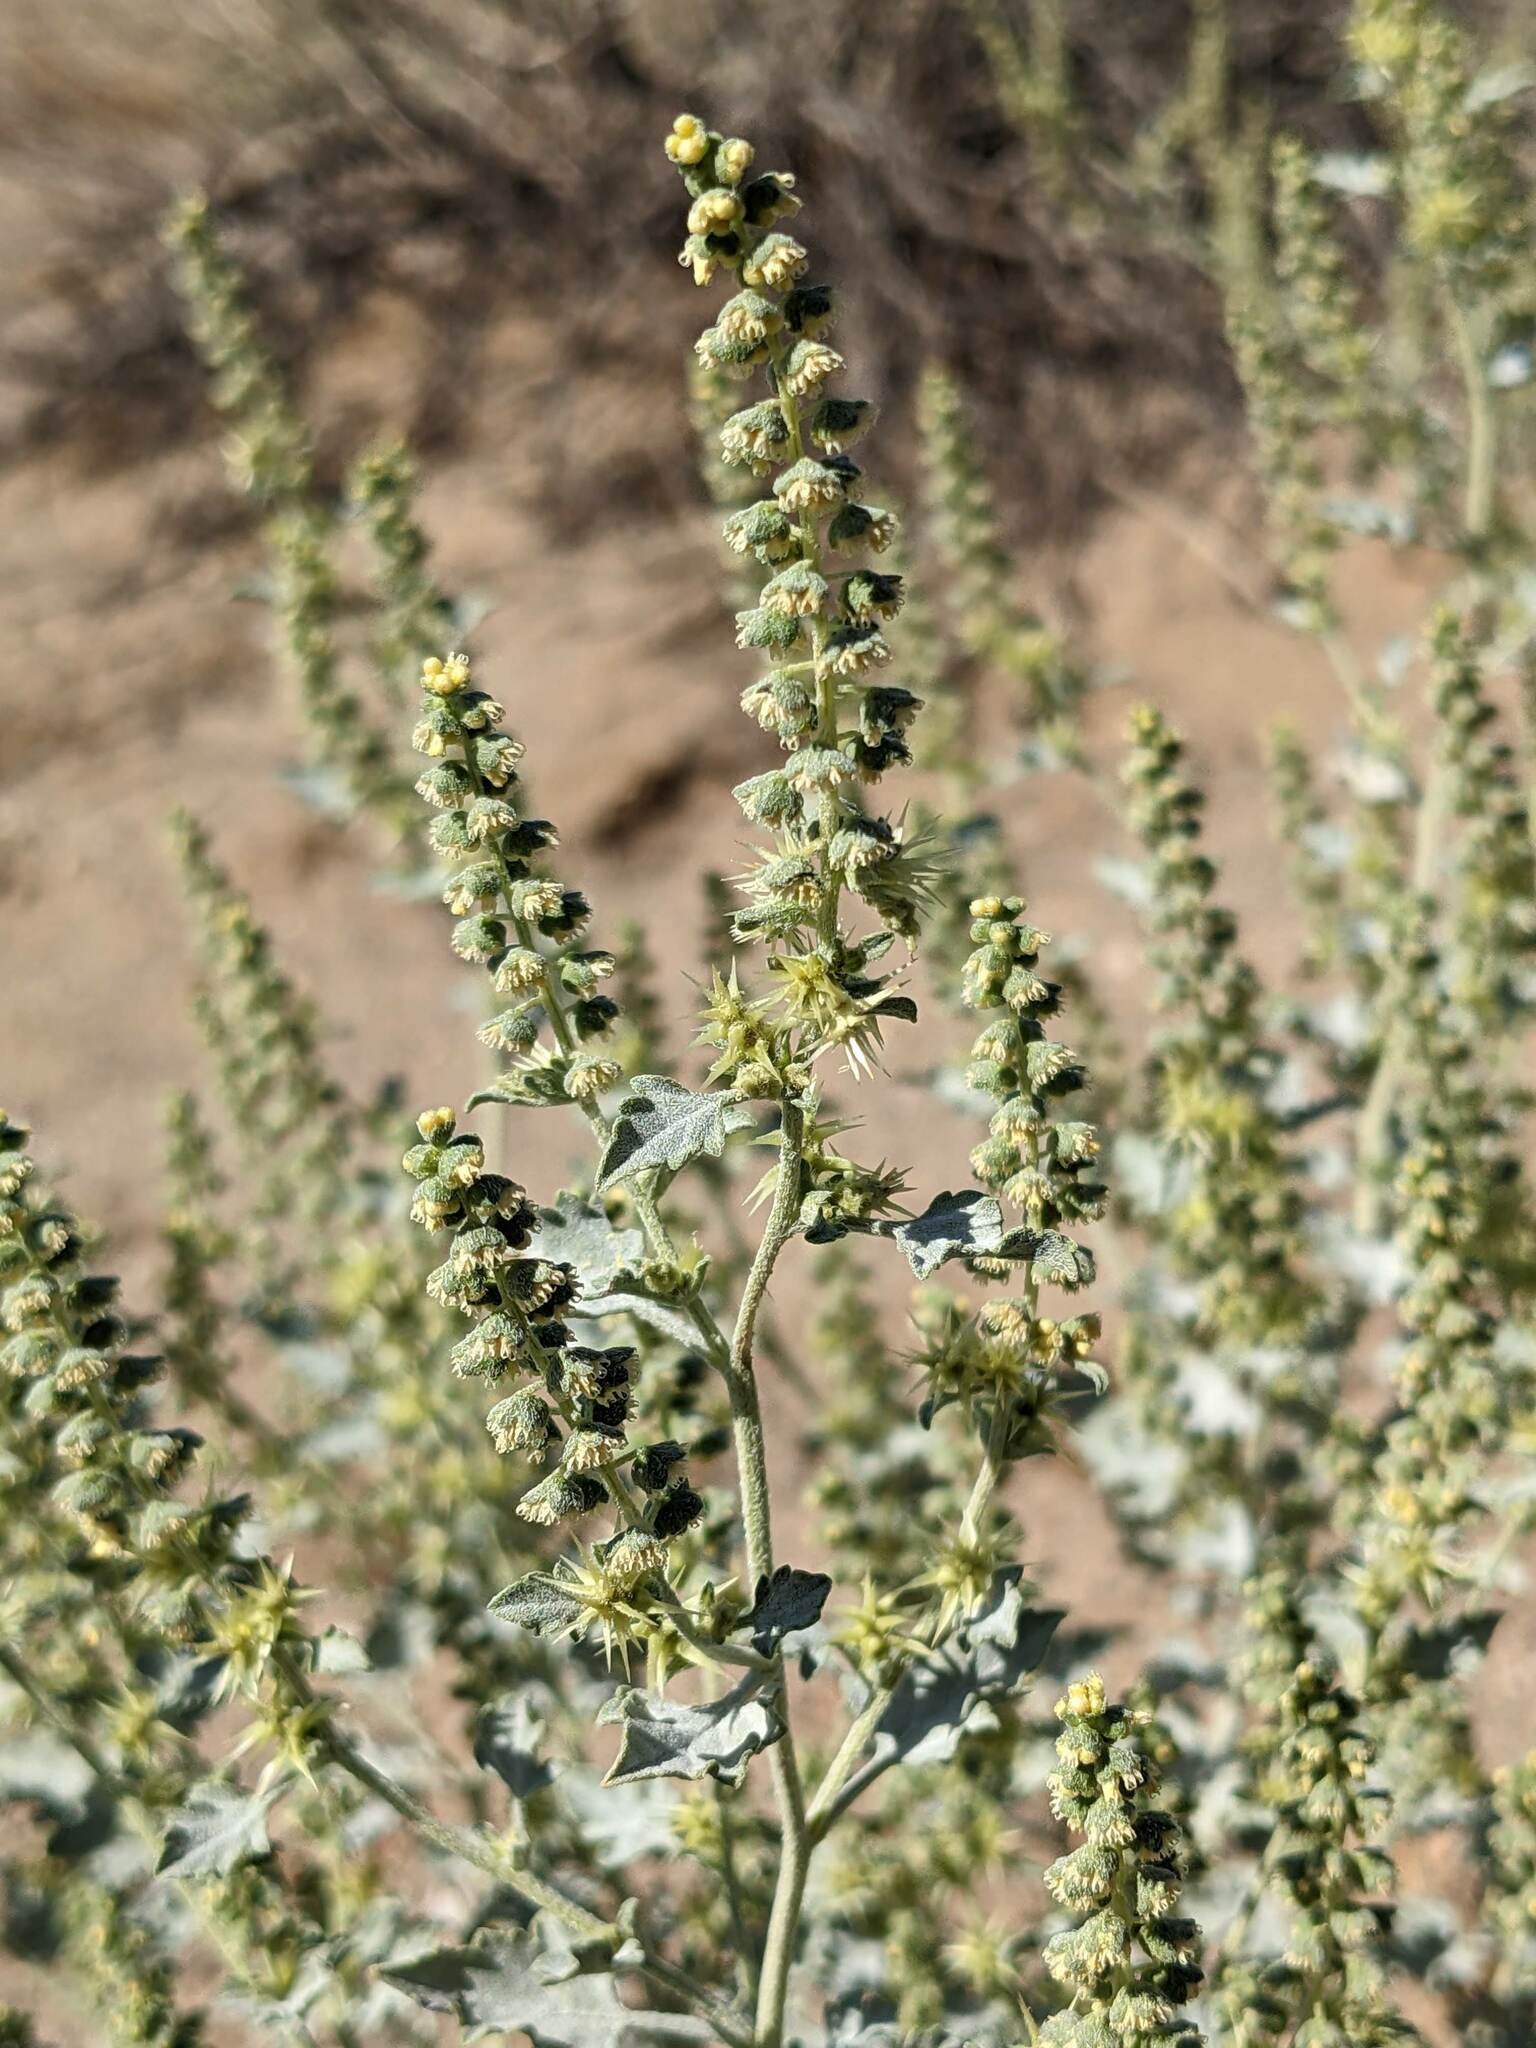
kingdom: Plantae
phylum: Tracheophyta
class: Magnoliopsida
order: Asterales
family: Asteraceae
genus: Ambrosia
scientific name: Ambrosia acanthicarpa
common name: Hooker's bur ragweed
